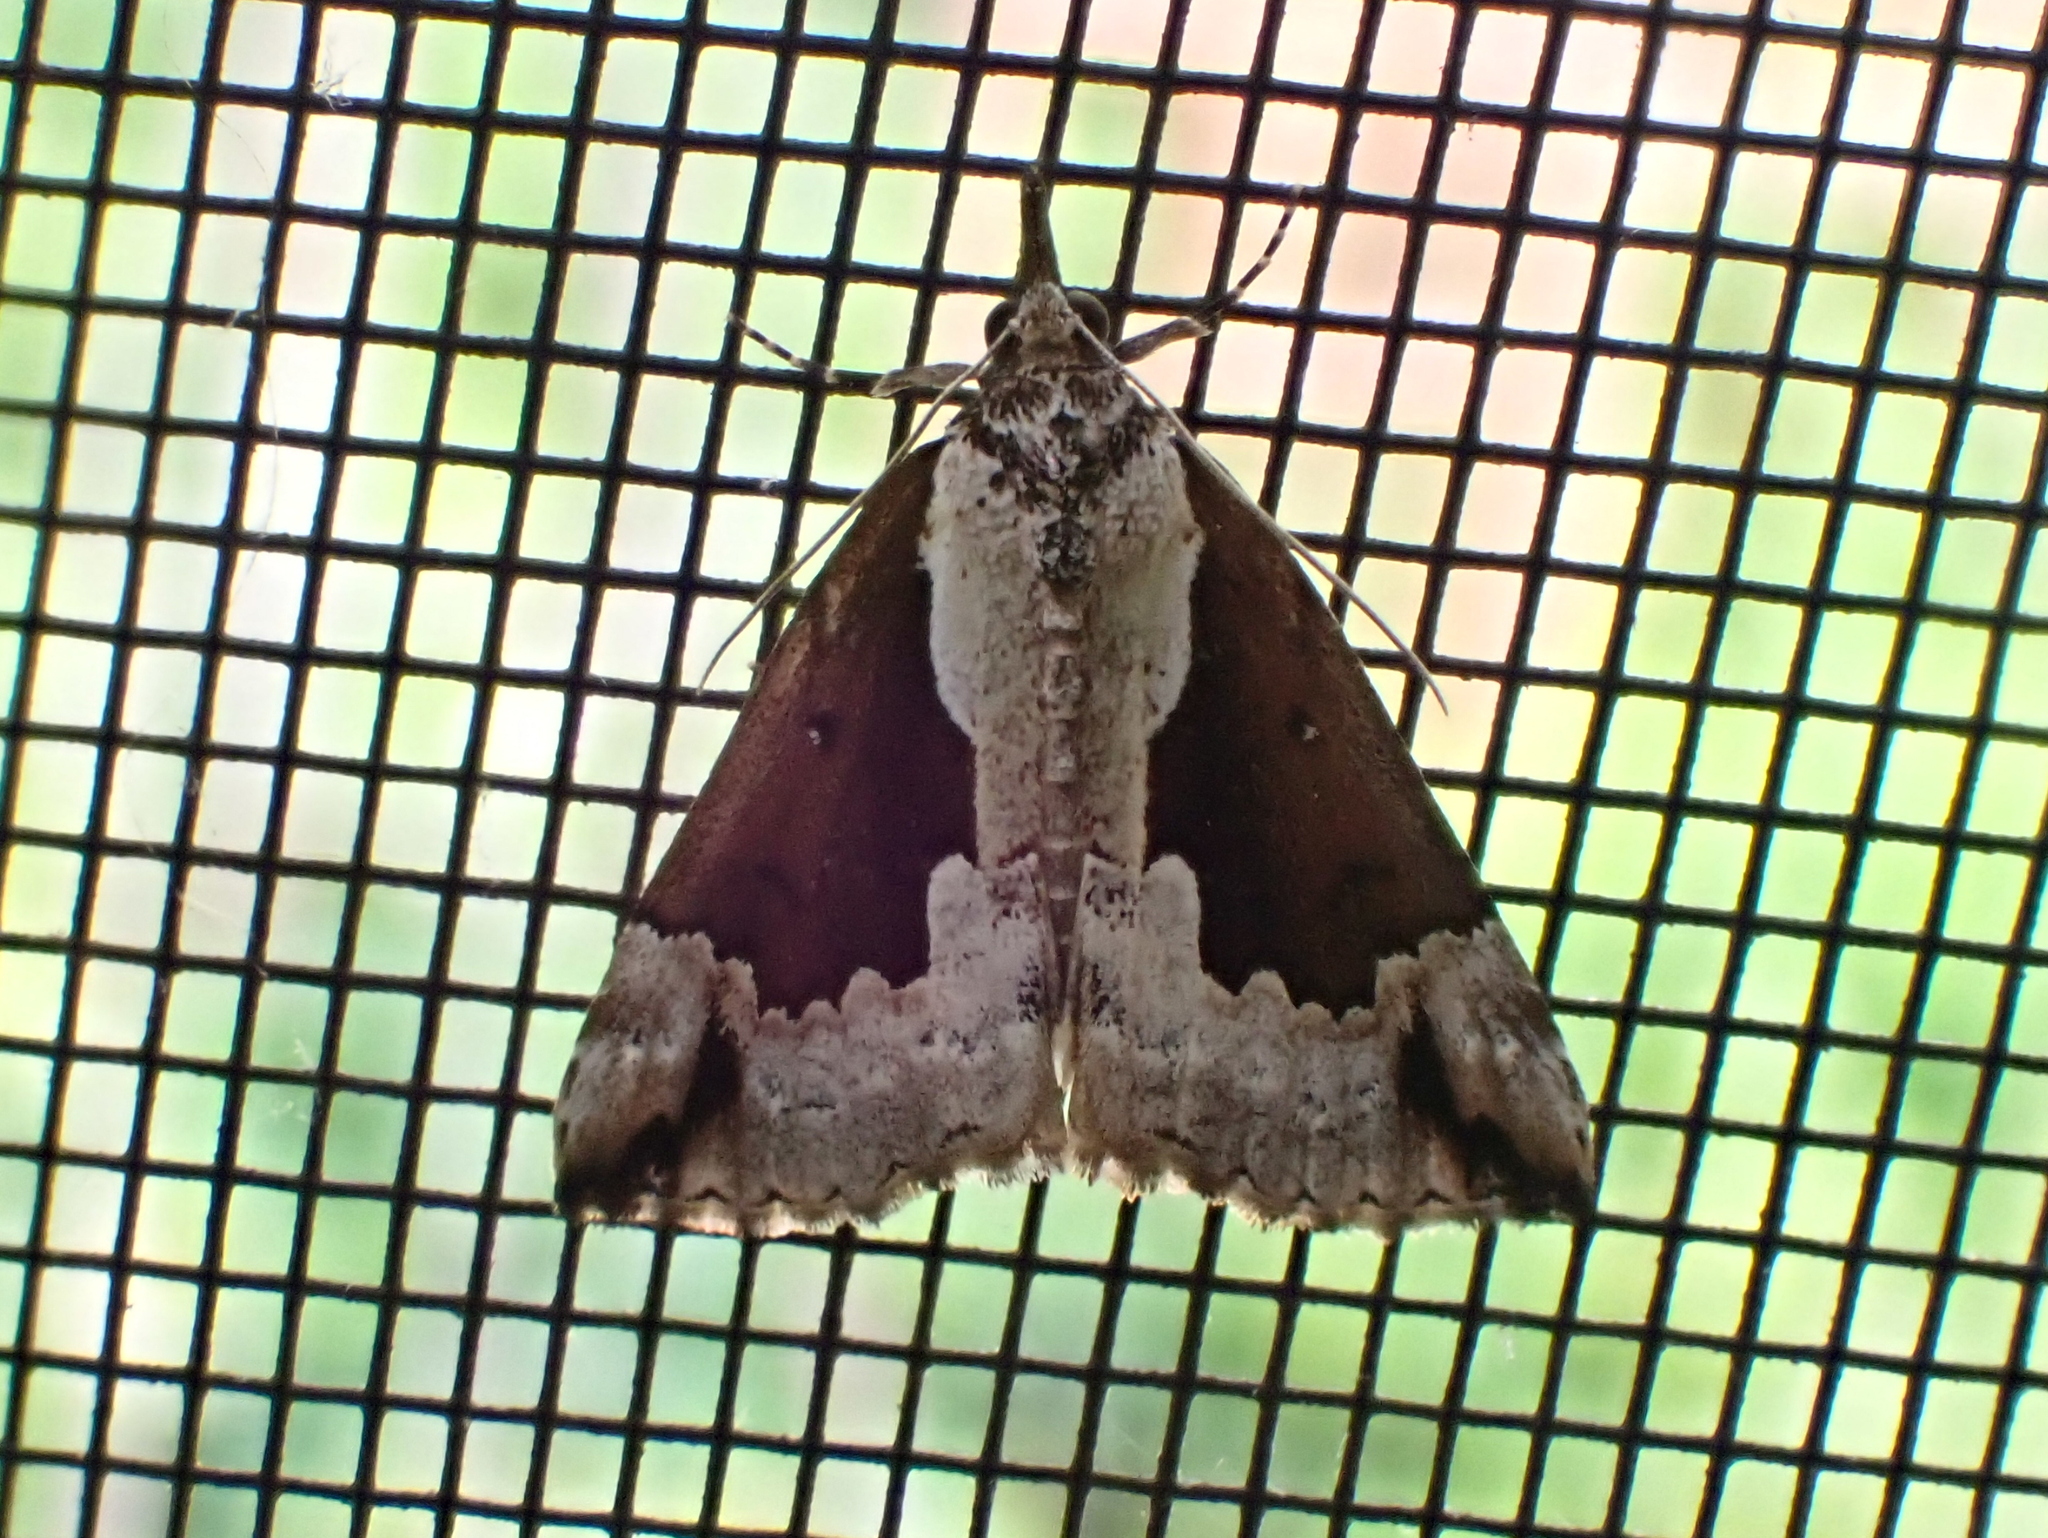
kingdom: Animalia
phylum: Arthropoda
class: Insecta
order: Lepidoptera
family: Erebidae
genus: Hypena
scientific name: Hypena baltimoralis
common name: Baltimore snout
